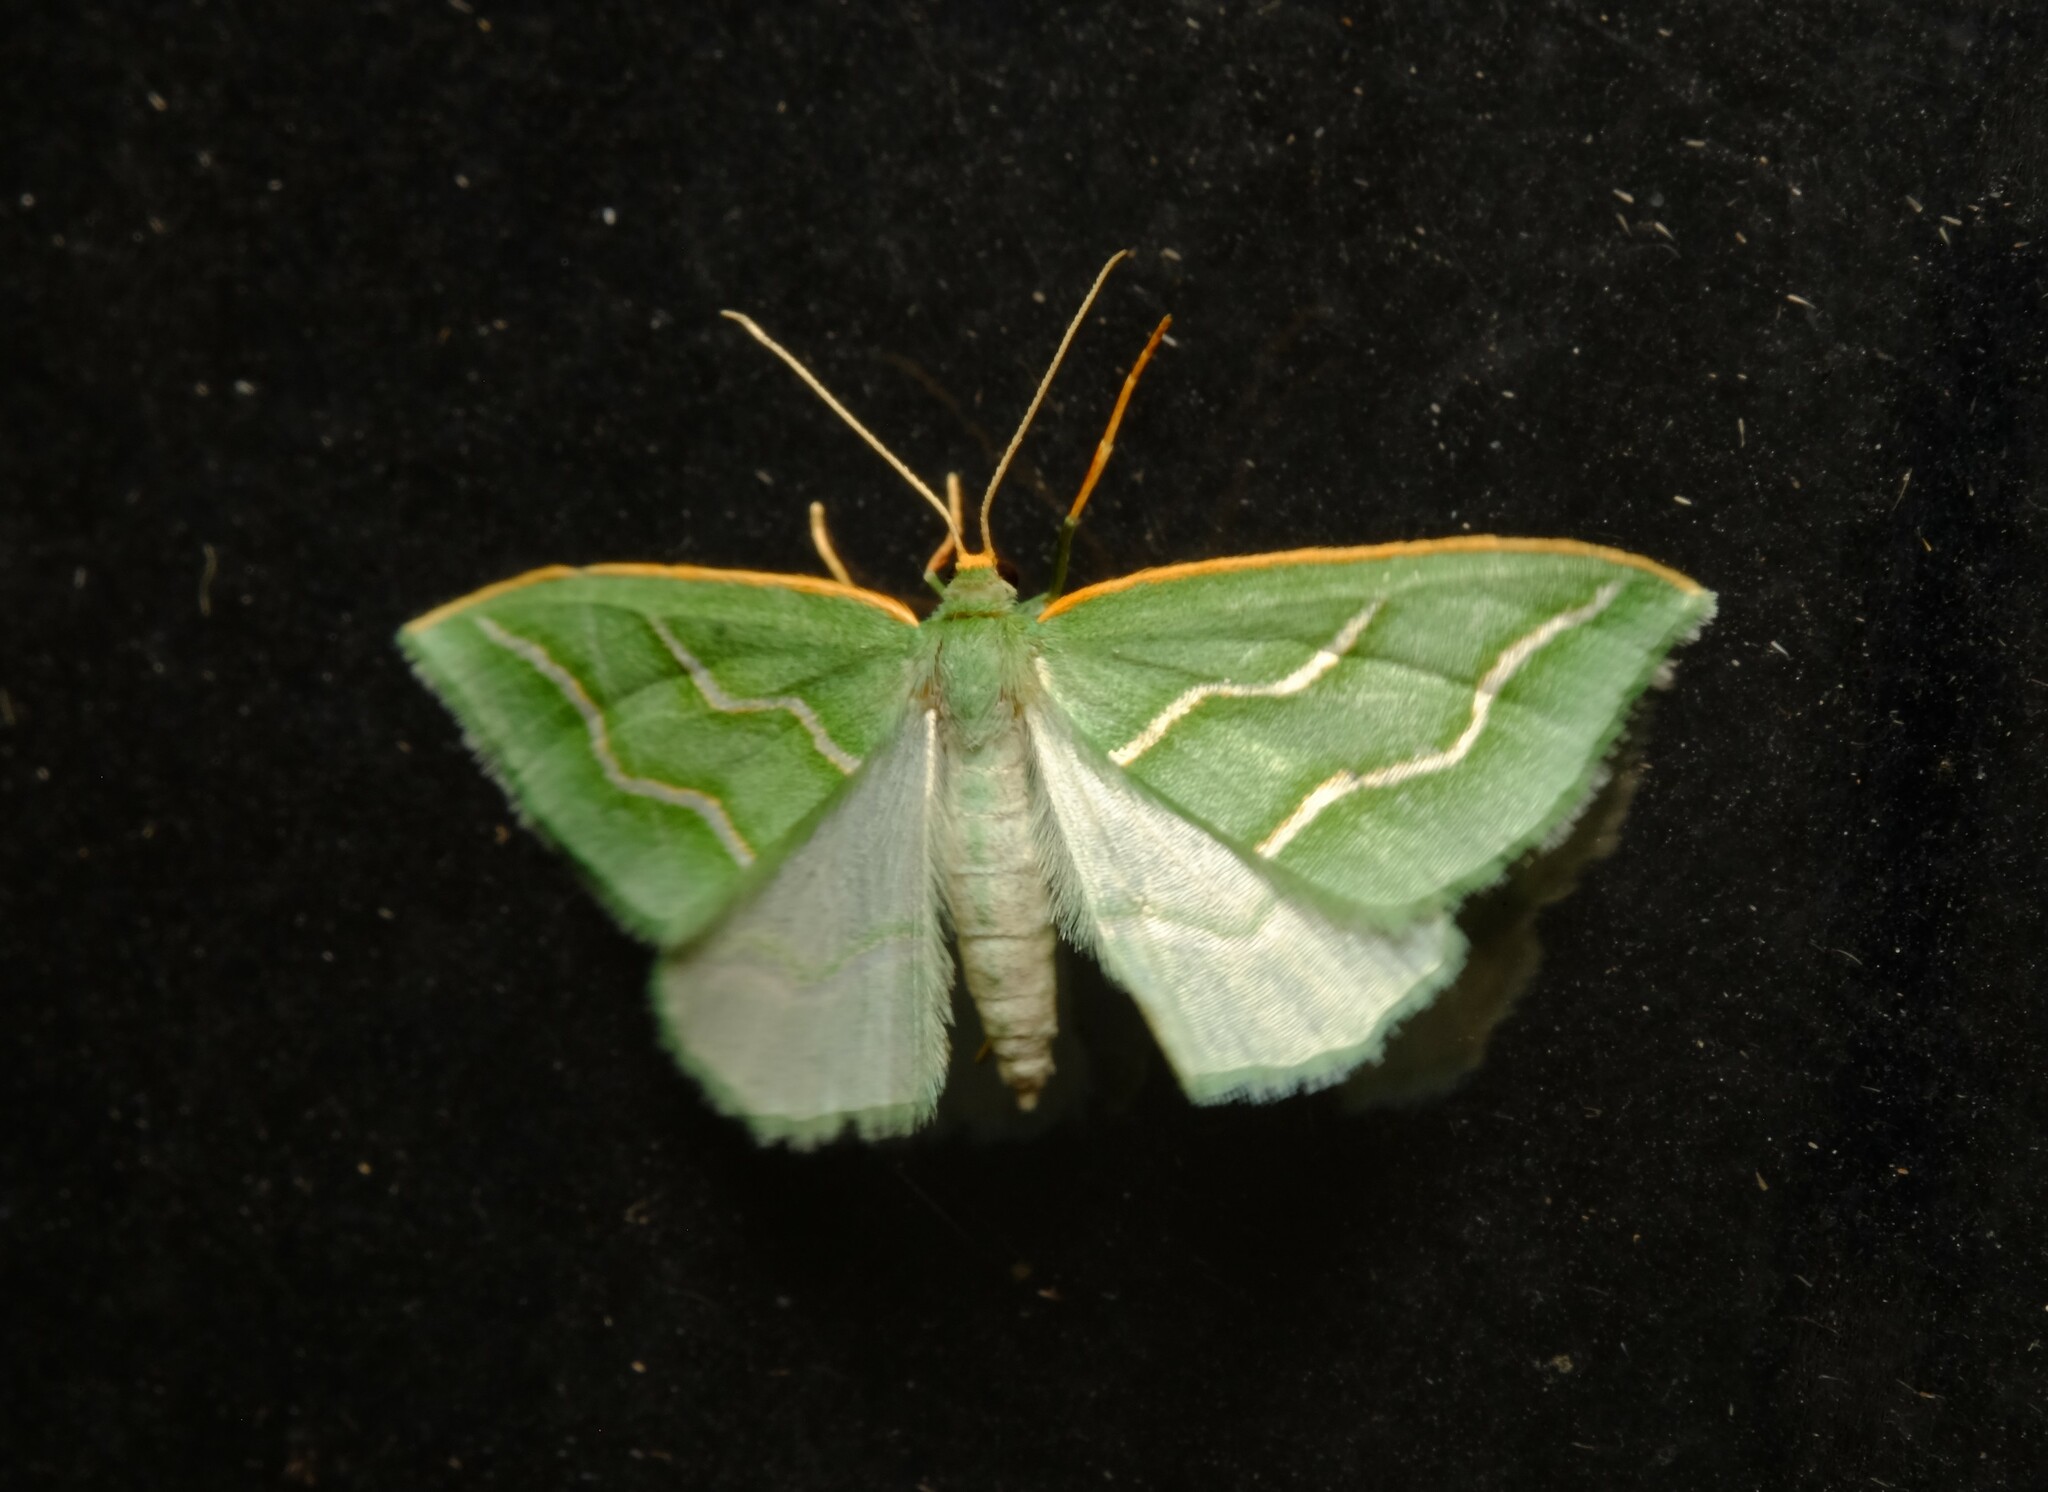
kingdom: Animalia
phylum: Arthropoda
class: Insecta
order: Lepidoptera
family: Geometridae
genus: Euloxia
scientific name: Euloxia meandraria
